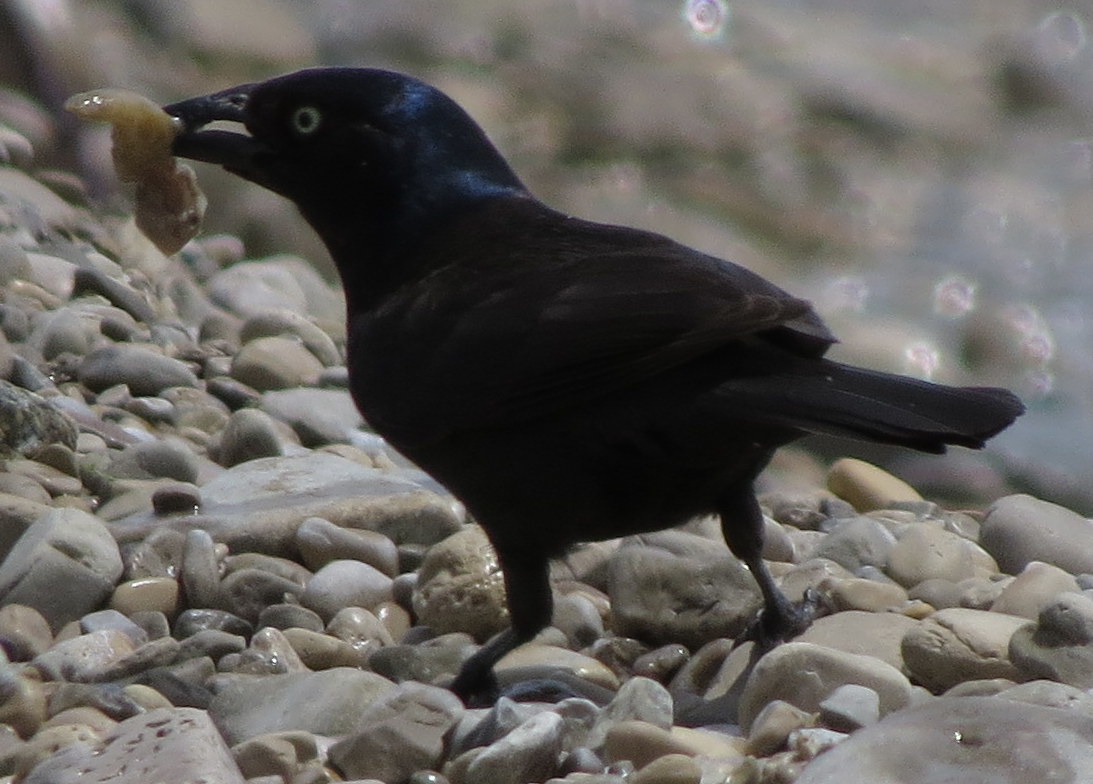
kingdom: Animalia
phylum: Chordata
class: Aves
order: Passeriformes
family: Icteridae
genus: Quiscalus
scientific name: Quiscalus quiscula
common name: Common grackle
